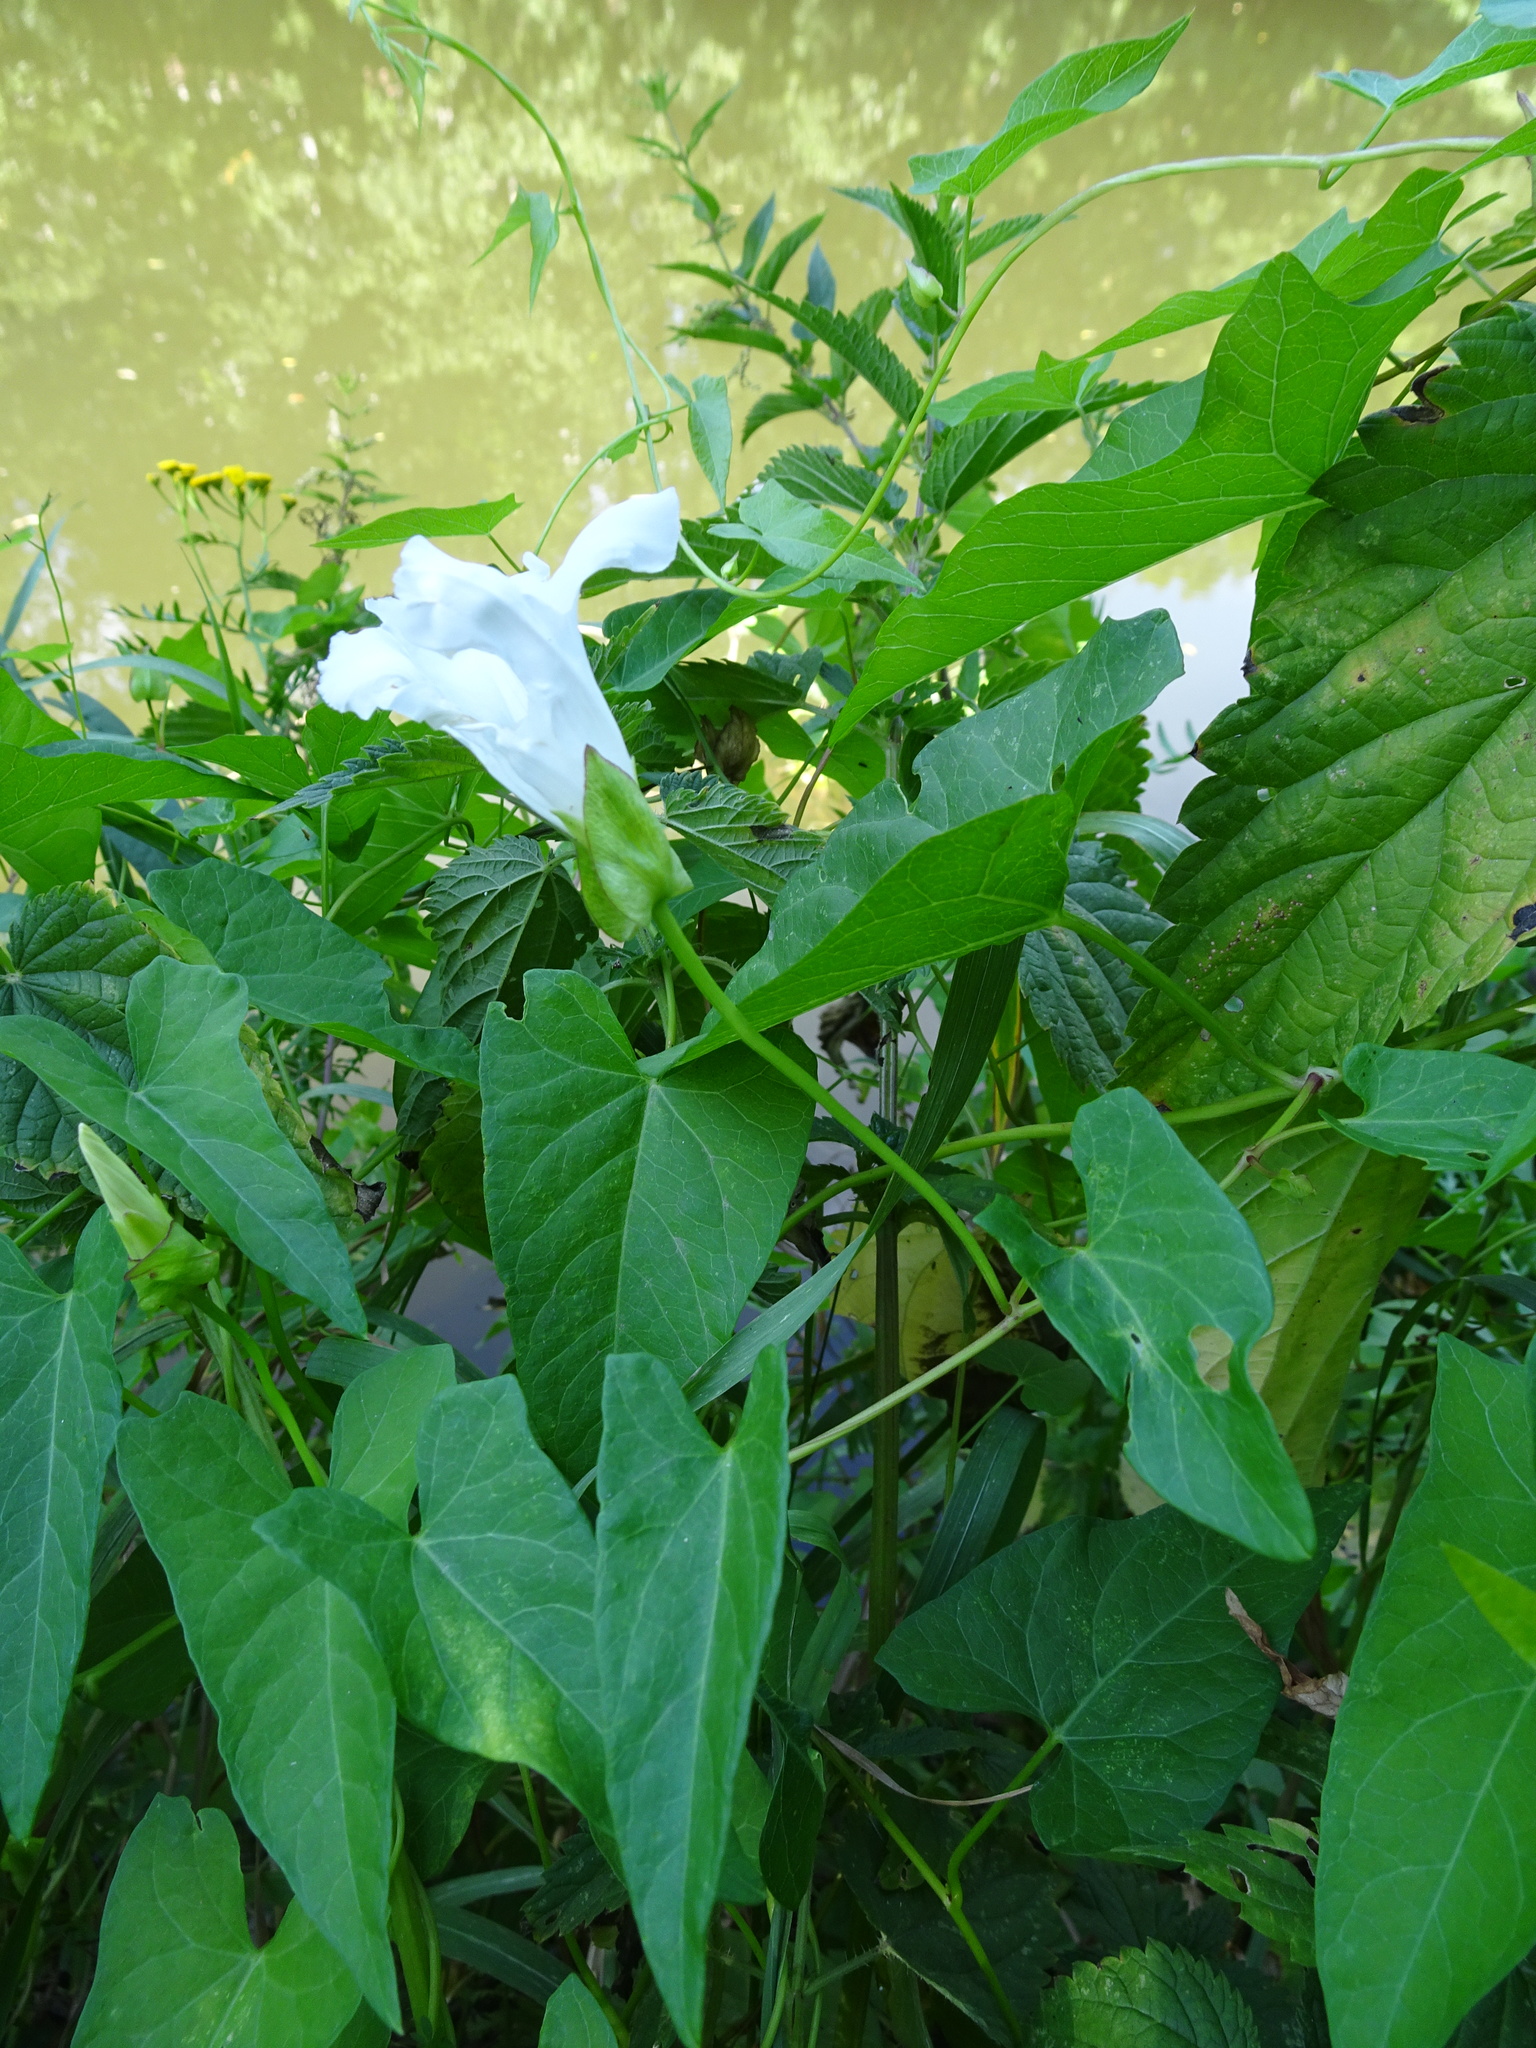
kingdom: Plantae
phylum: Tracheophyta
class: Magnoliopsida
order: Solanales
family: Convolvulaceae
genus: Calystegia
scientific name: Calystegia sepium
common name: Hedge bindweed
